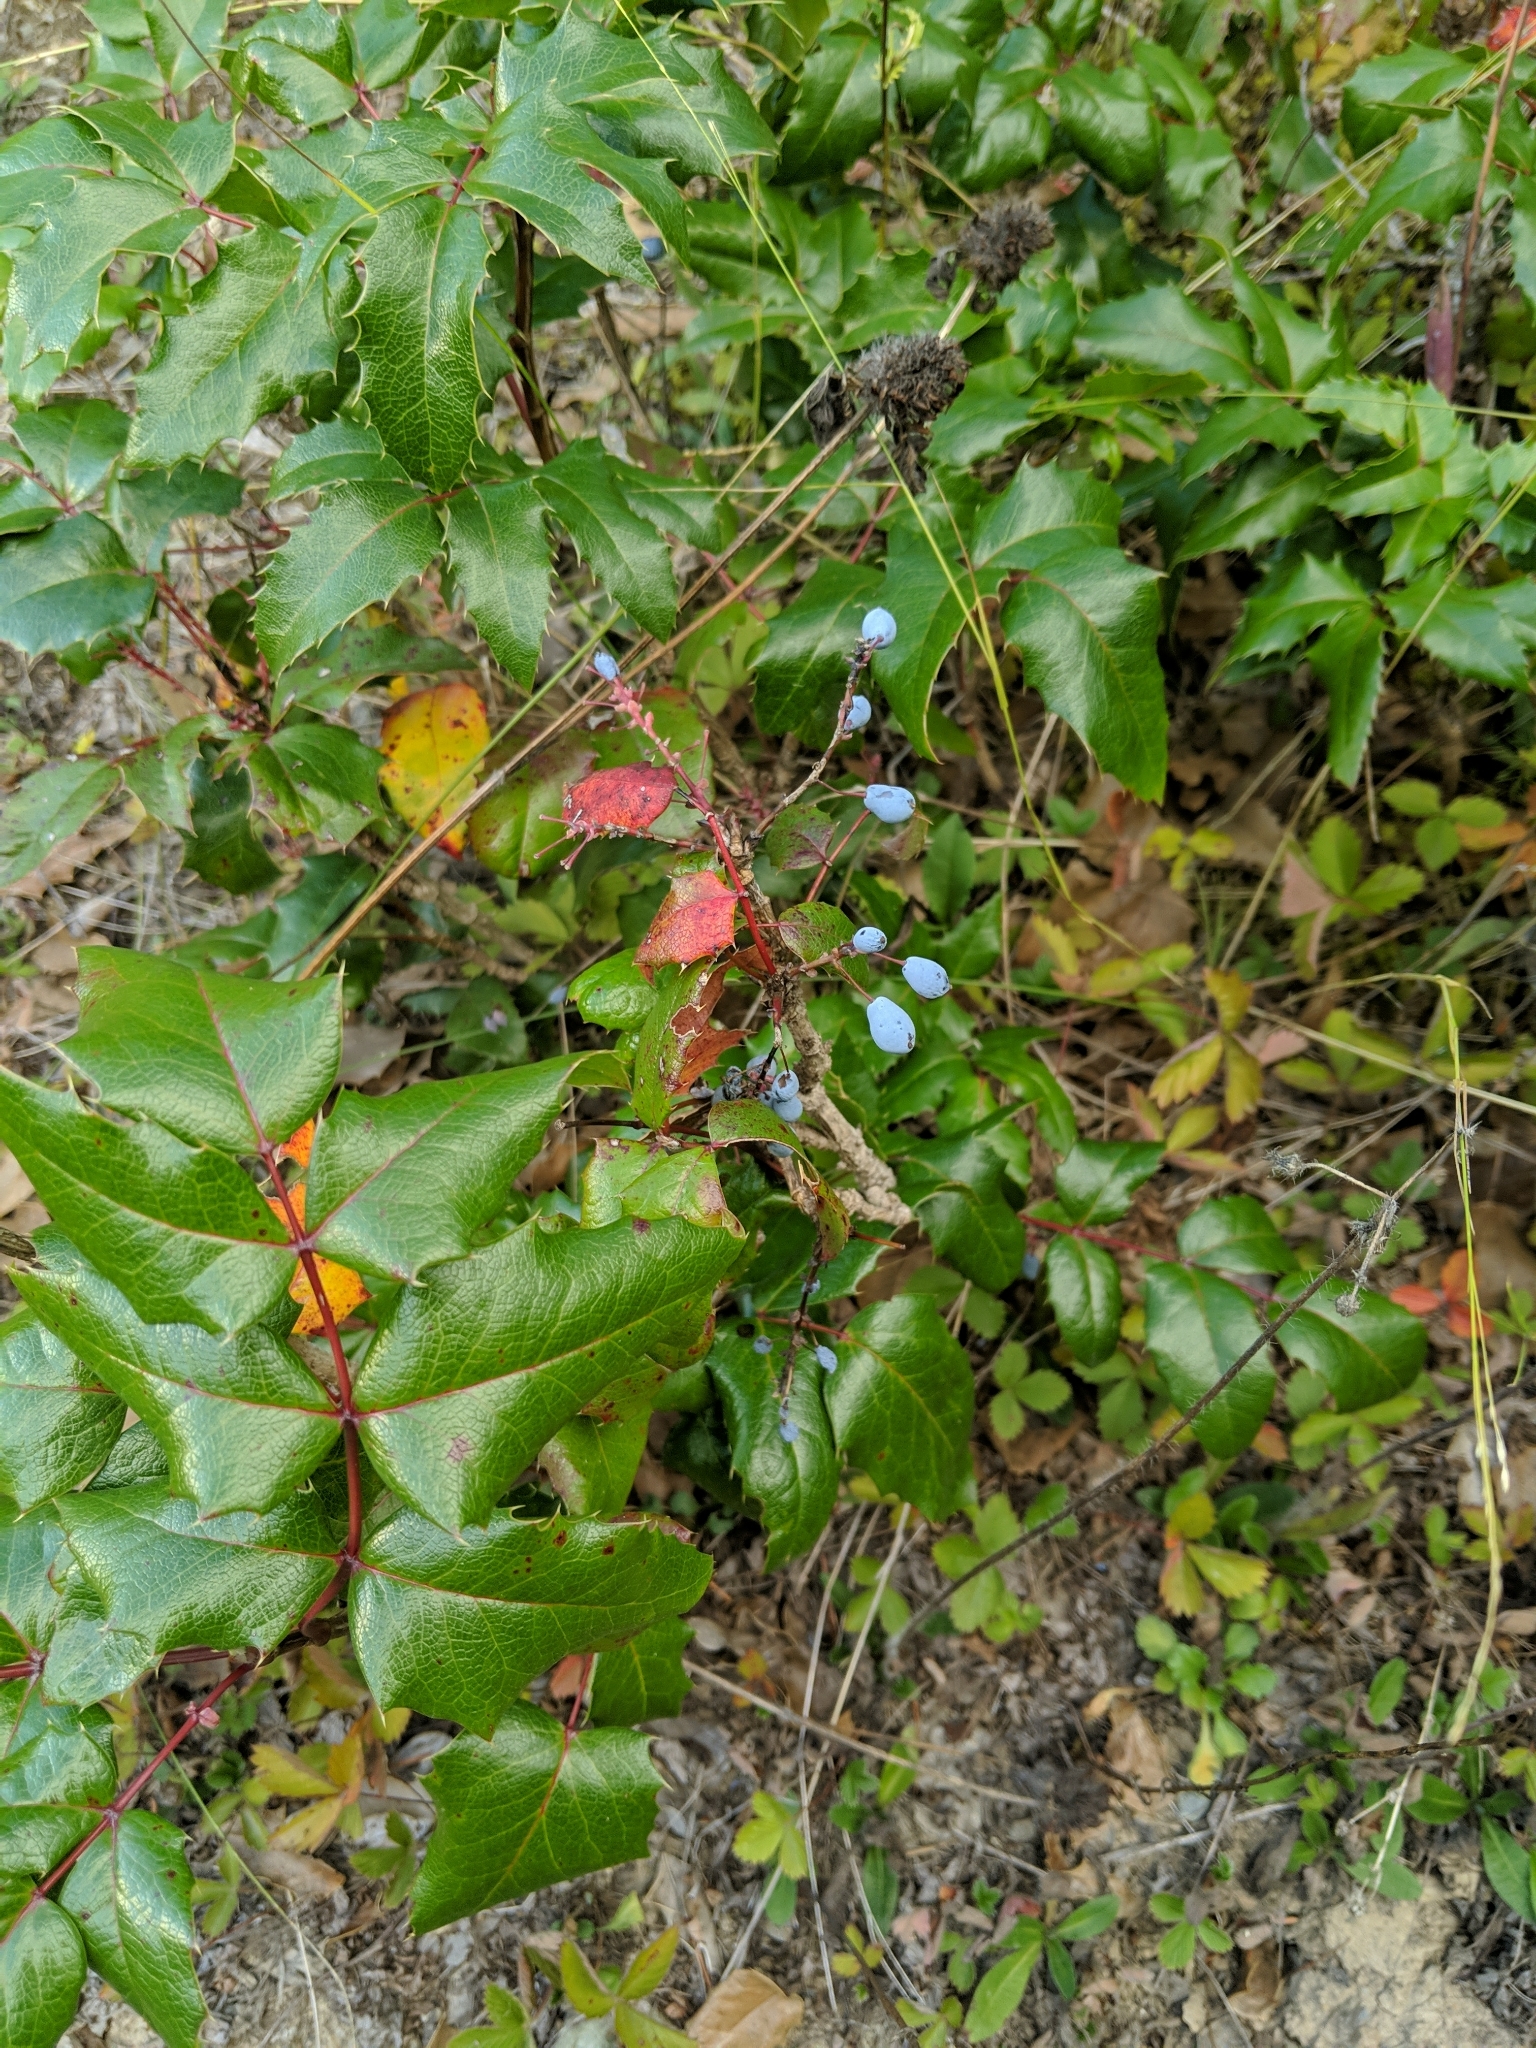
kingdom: Plantae
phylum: Tracheophyta
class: Magnoliopsida
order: Ranunculales
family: Berberidaceae
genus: Mahonia
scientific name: Mahonia aquifolium
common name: Oregon-grape
